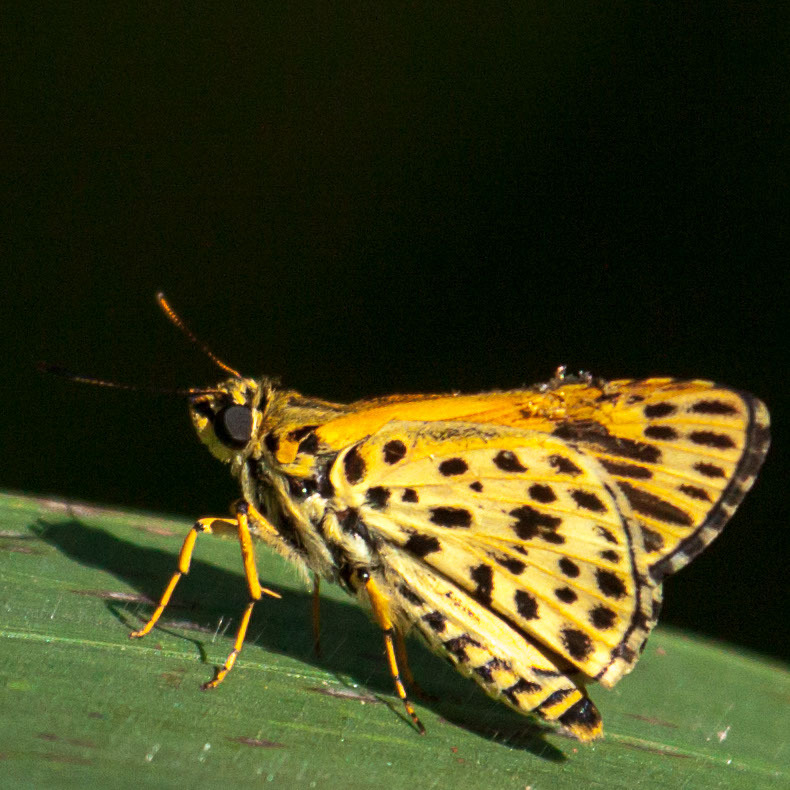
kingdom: Animalia
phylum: Arthropoda
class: Insecta
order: Lepidoptera
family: Hesperiidae
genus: Ampittia
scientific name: Ampittia capenas
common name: Riverine ranger
